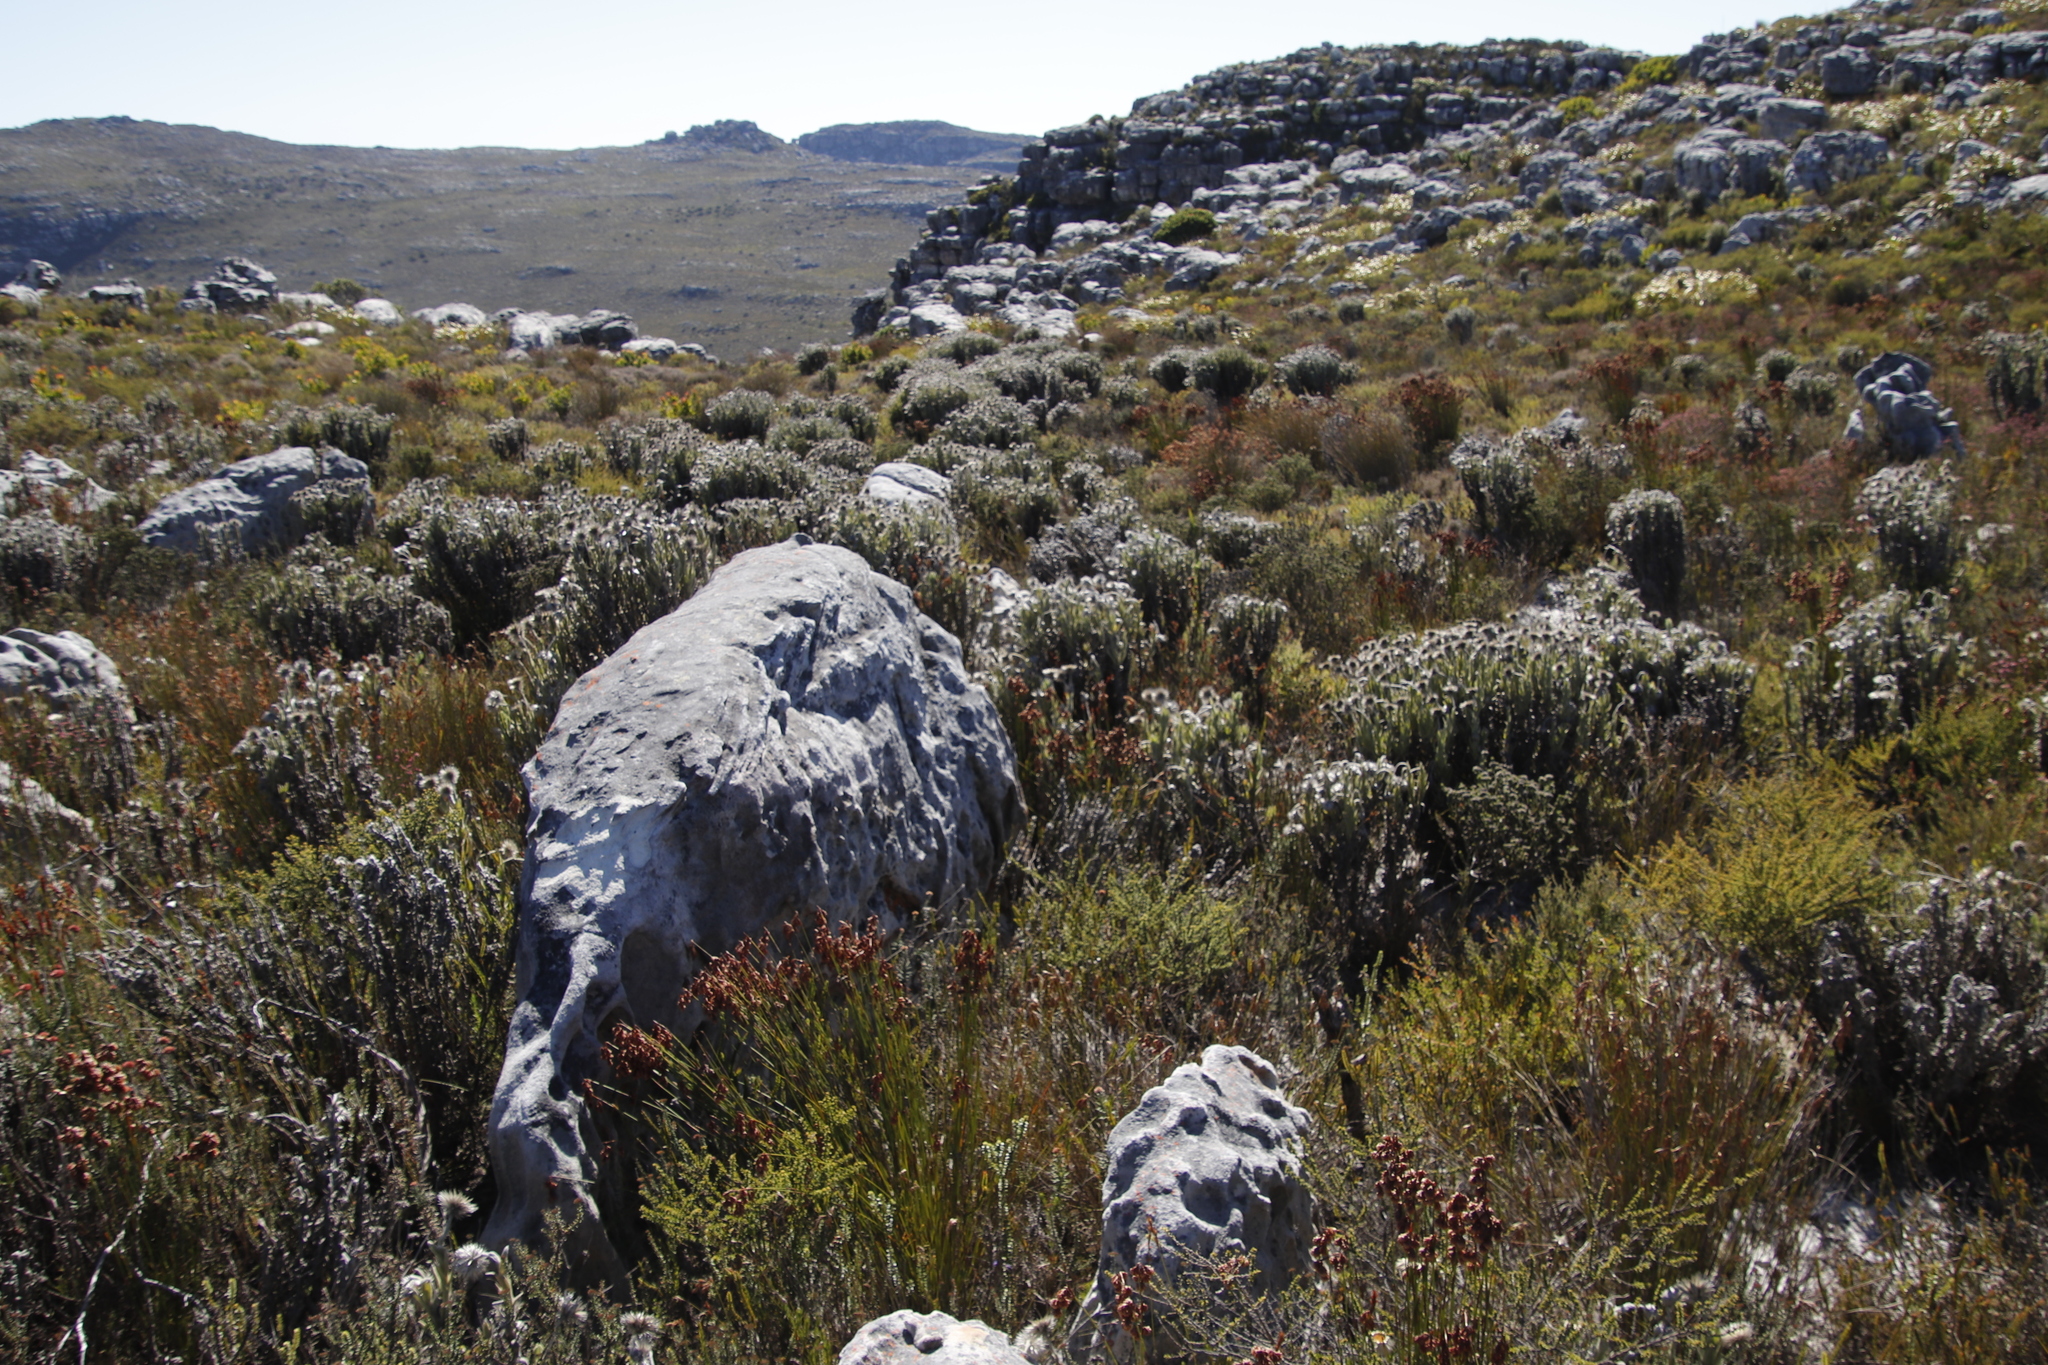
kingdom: Plantae
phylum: Tracheophyta
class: Magnoliopsida
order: Asterales
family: Asteraceae
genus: Syncarpha
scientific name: Syncarpha vestita
